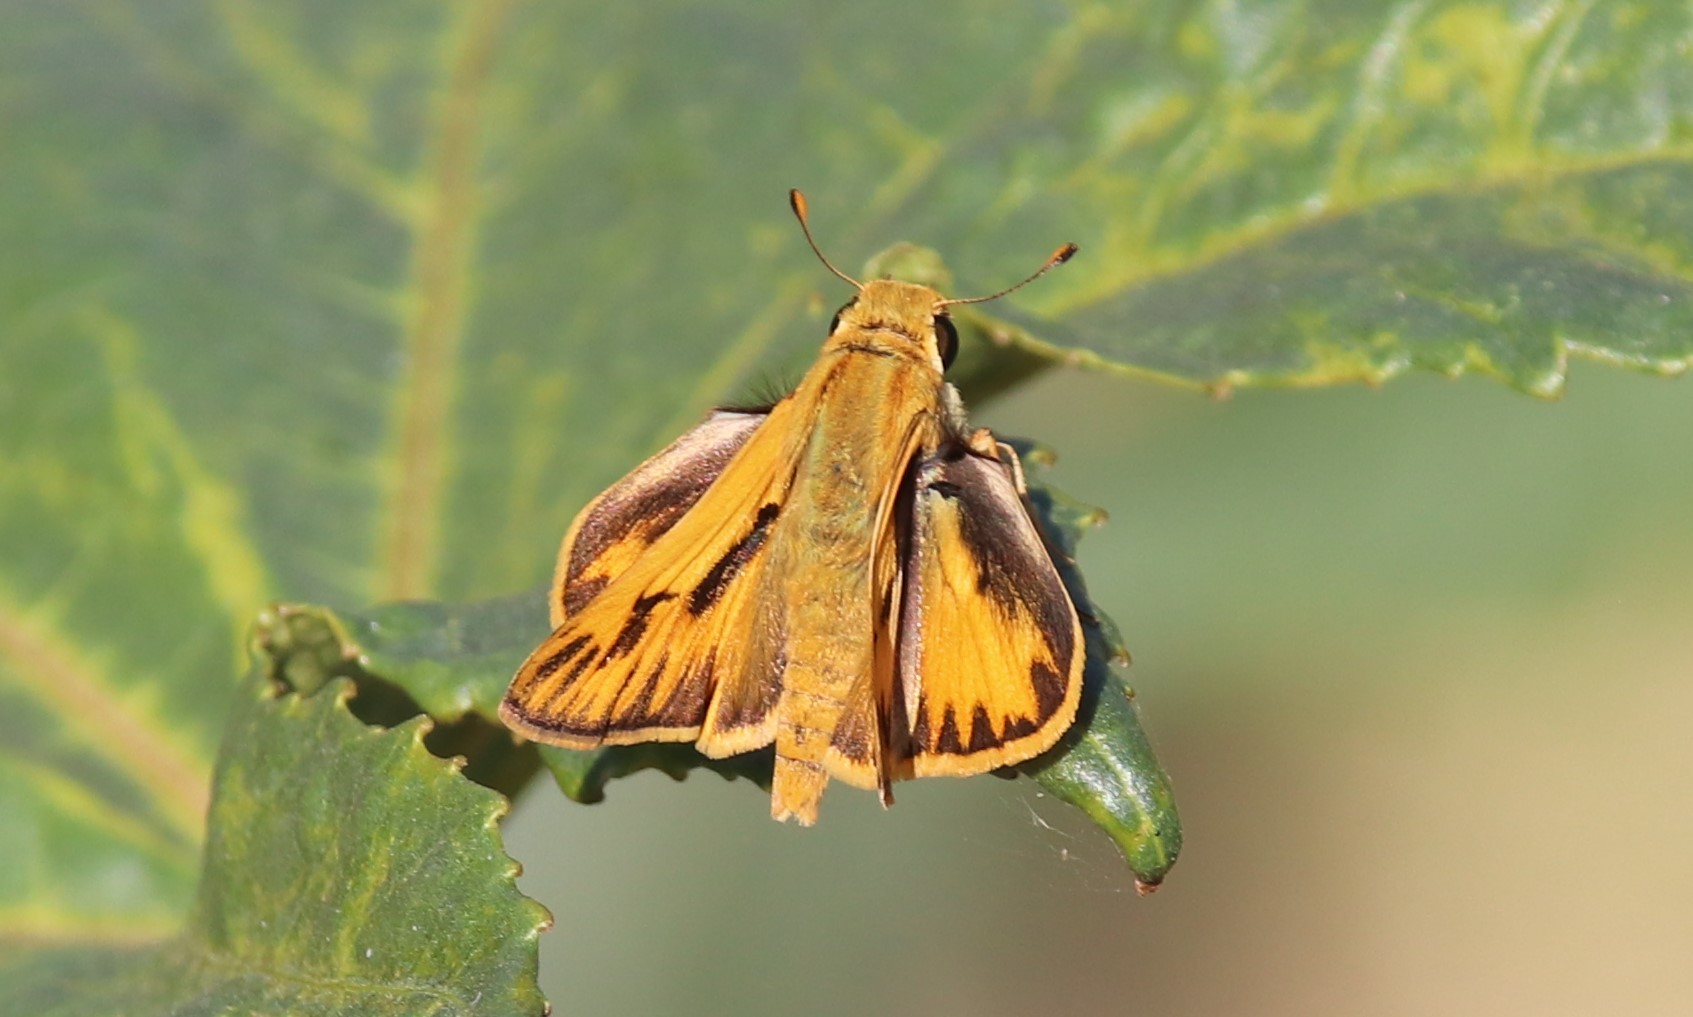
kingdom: Animalia
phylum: Arthropoda
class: Insecta
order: Lepidoptera
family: Hesperiidae
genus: Hylephila
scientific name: Hylephila phyleus
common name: Fiery skipper
